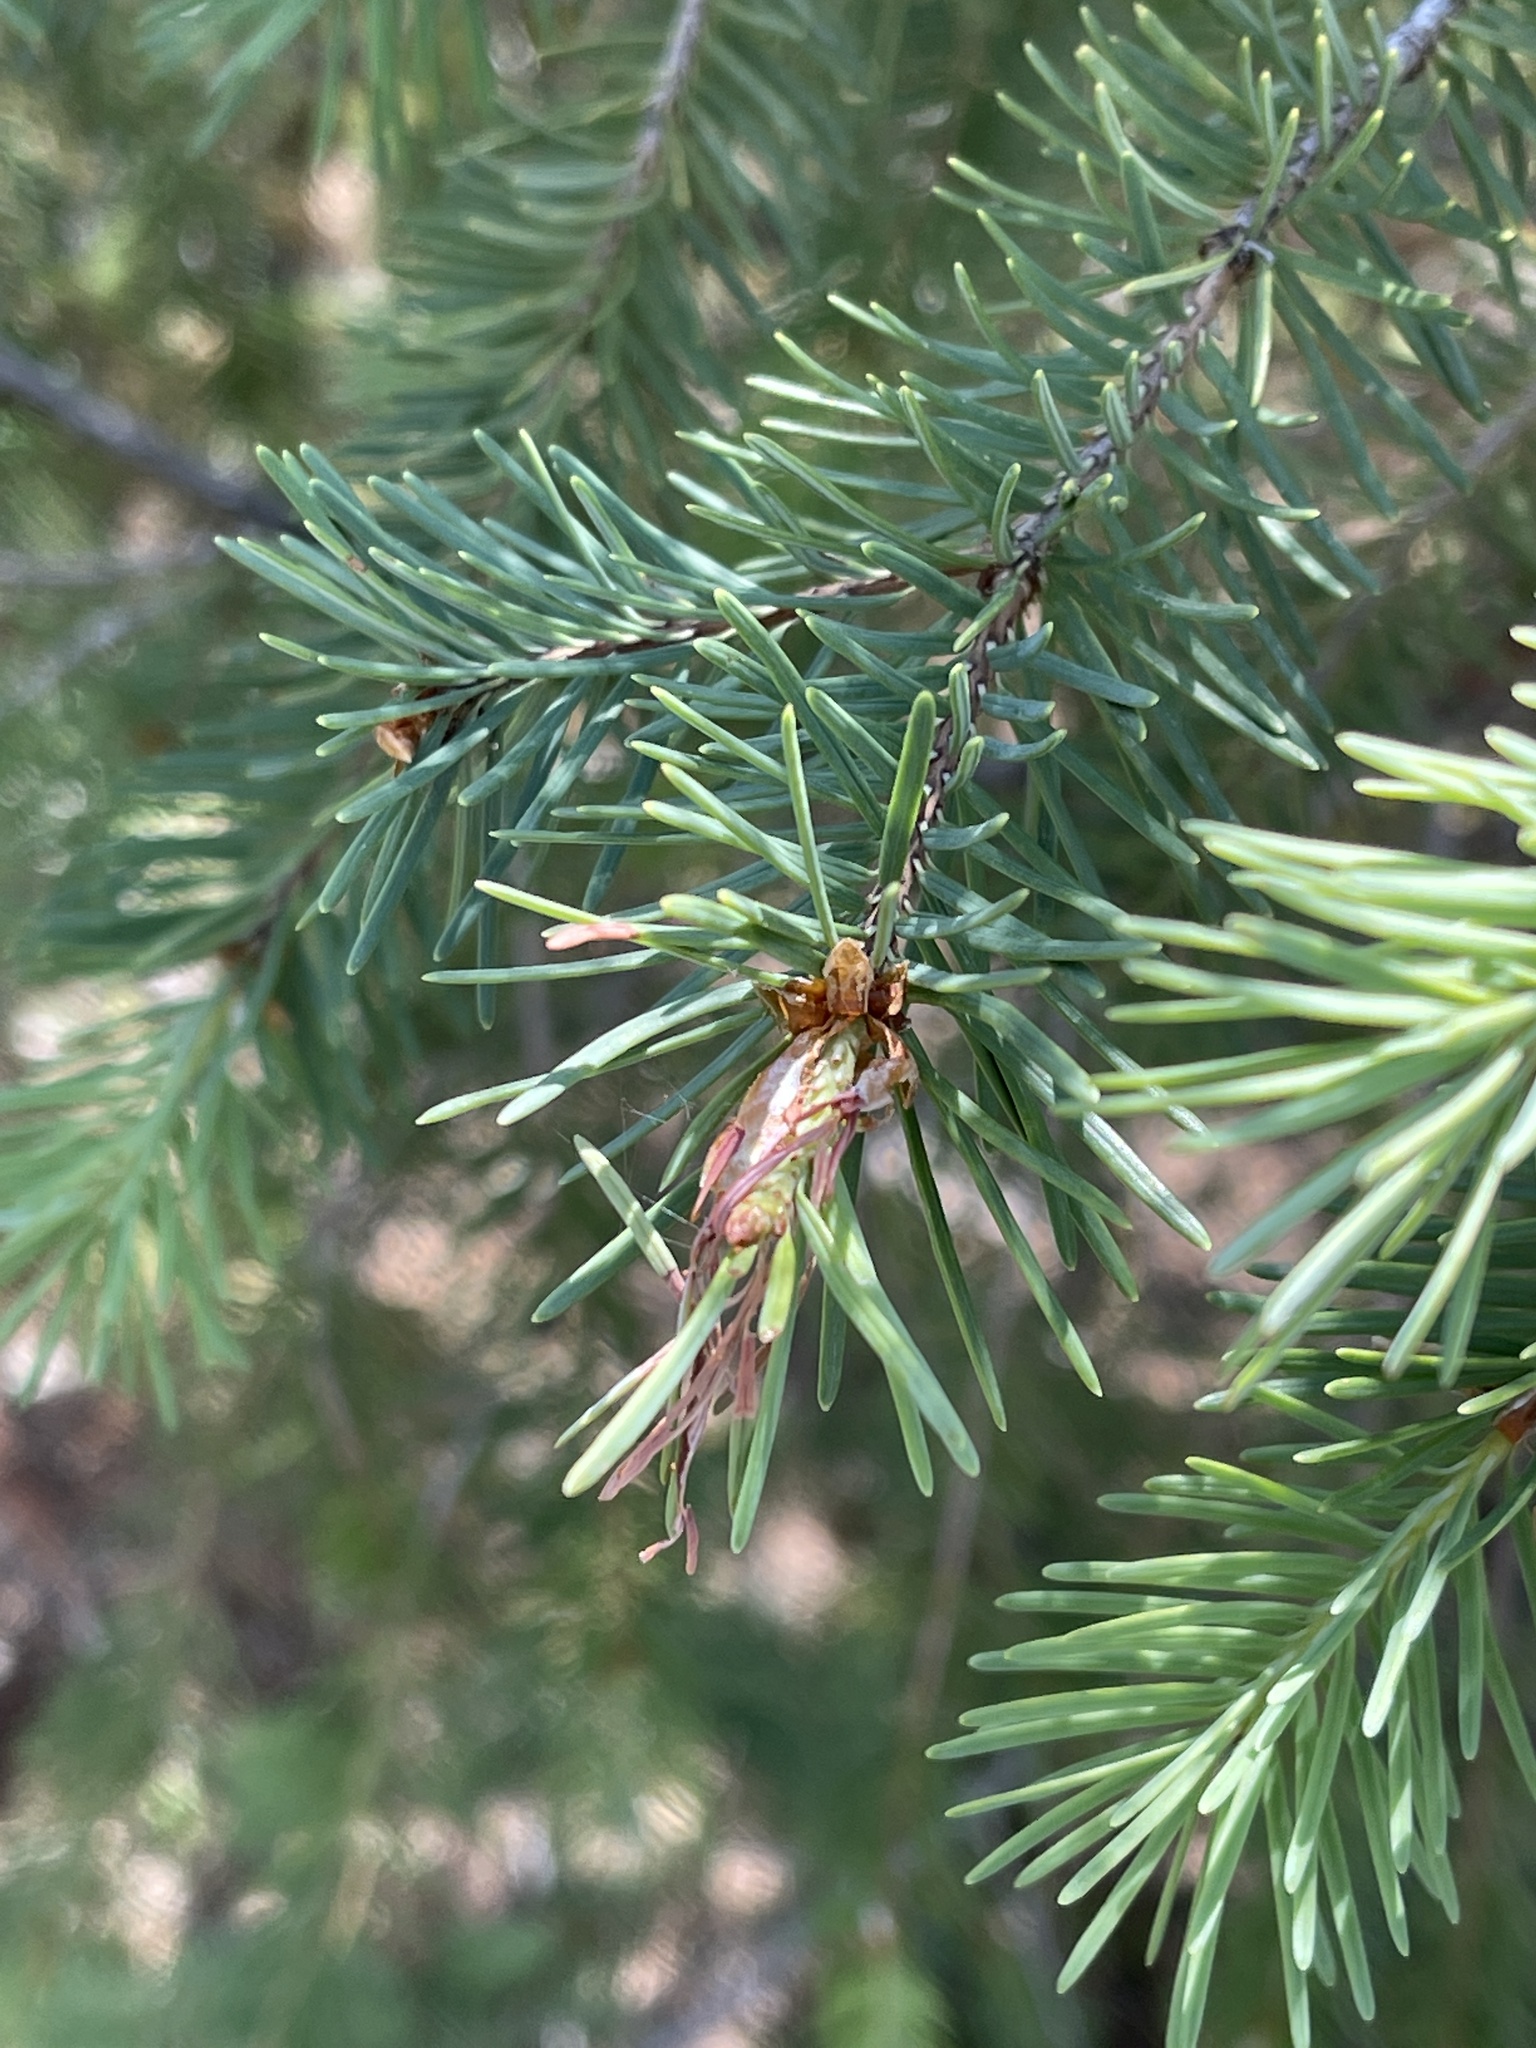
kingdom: Plantae
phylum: Tracheophyta
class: Pinopsida
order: Pinales
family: Pinaceae
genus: Pseudotsuga
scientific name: Pseudotsuga menziesii
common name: Douglas fir
